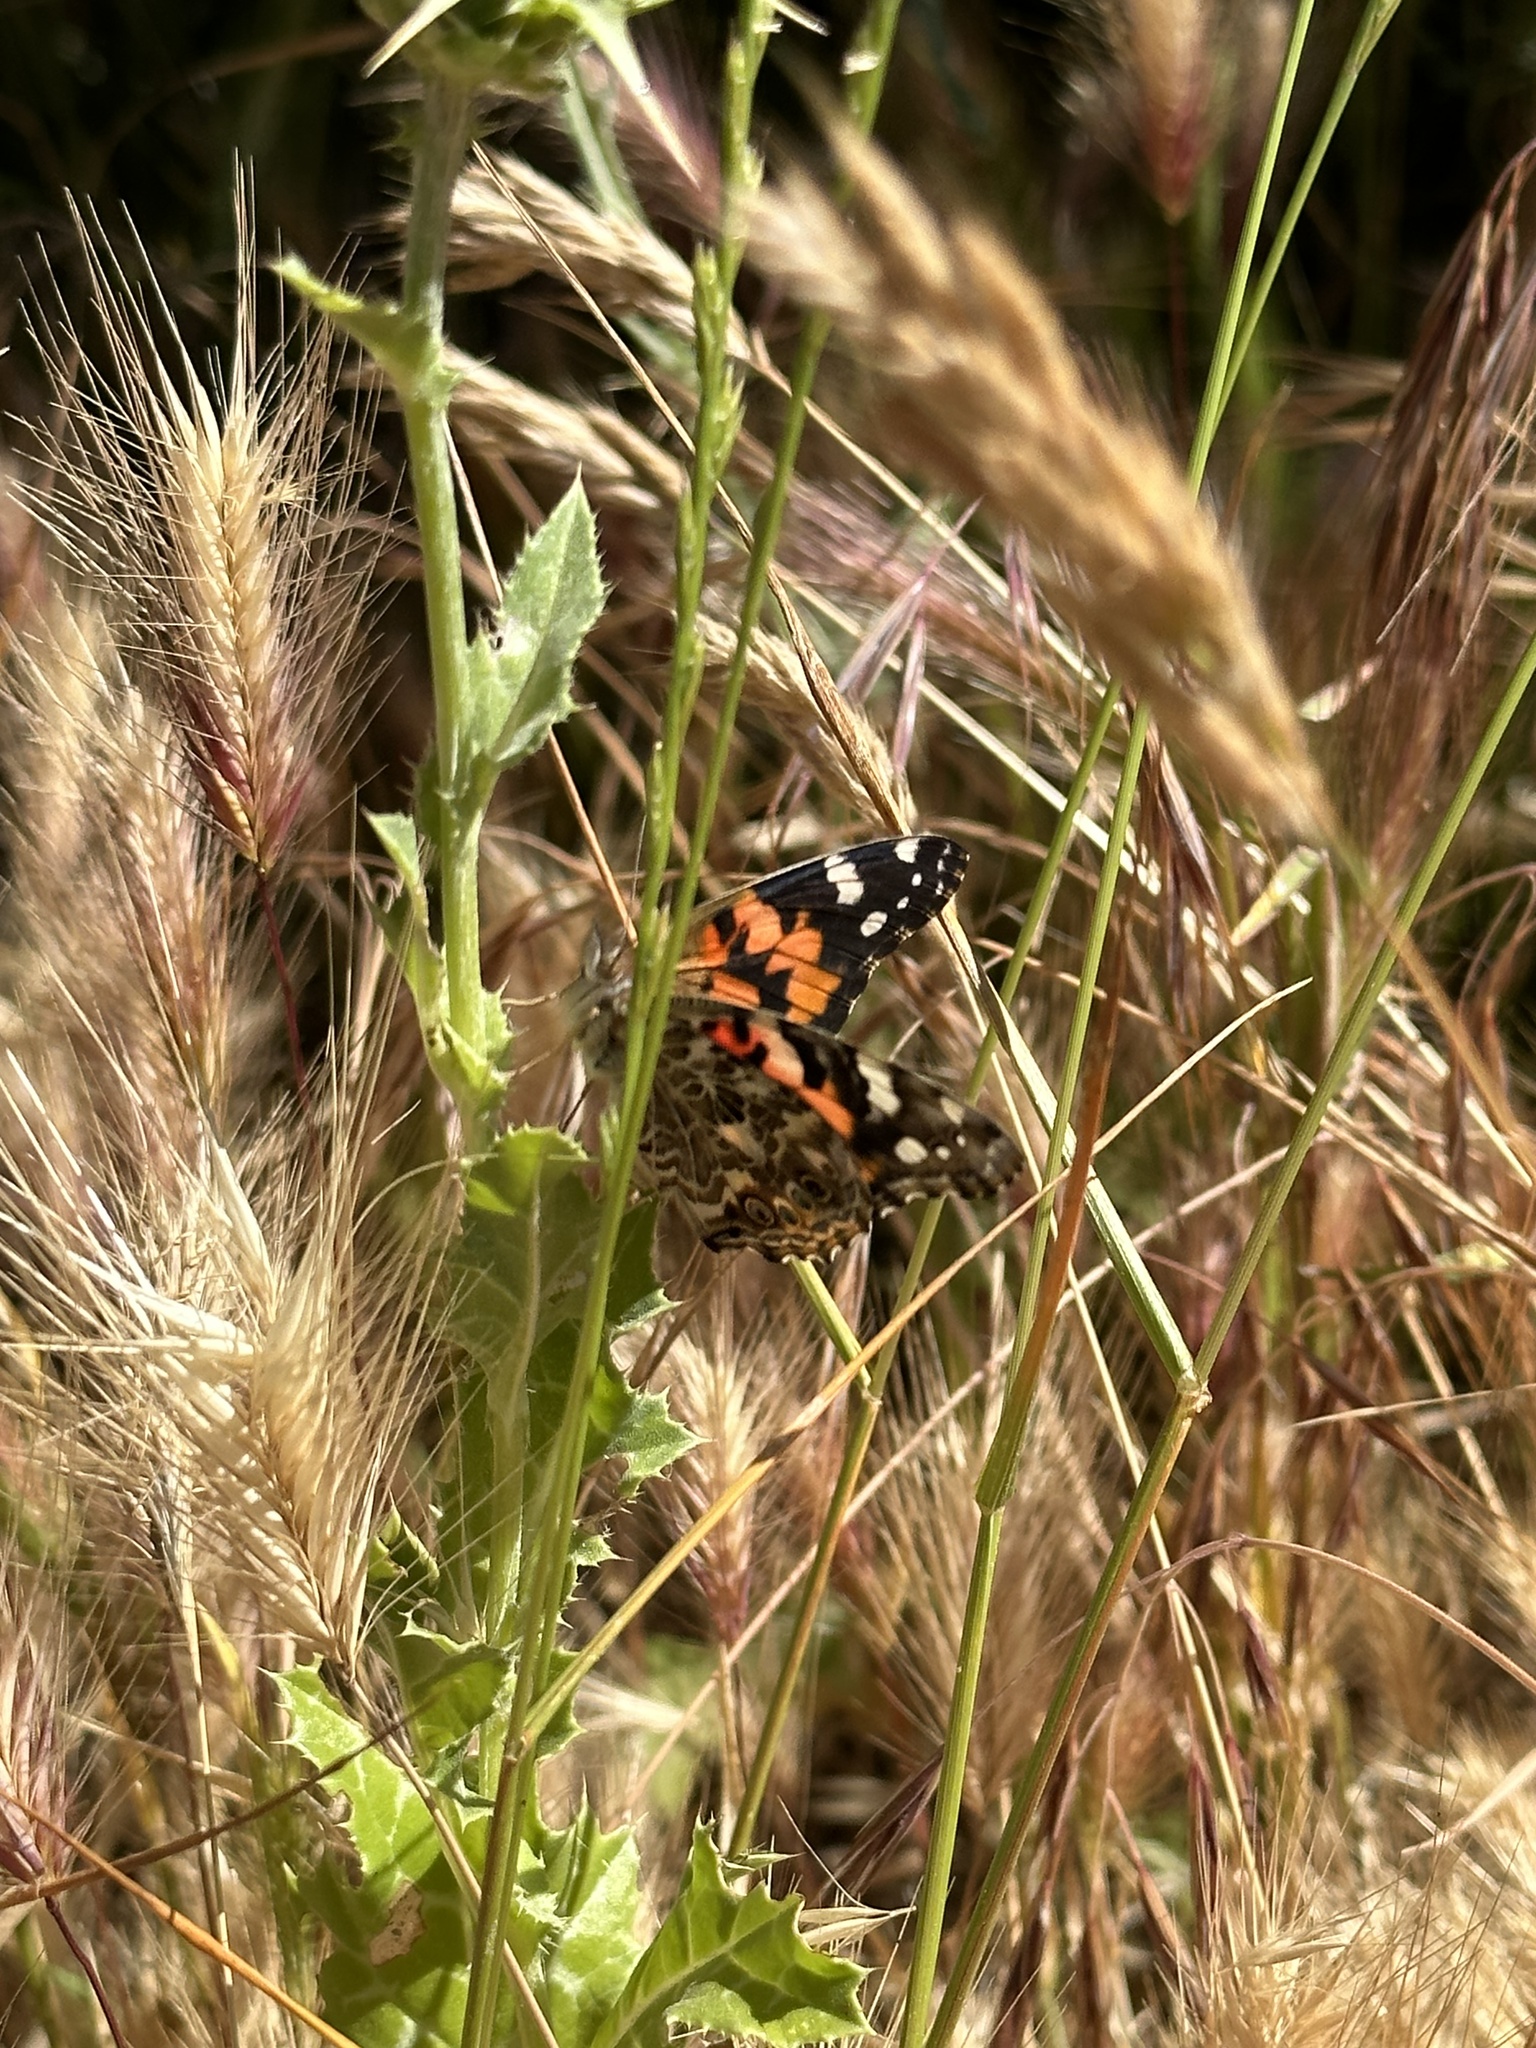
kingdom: Animalia
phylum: Arthropoda
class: Insecta
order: Lepidoptera
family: Nymphalidae
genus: Vanessa
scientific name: Vanessa cardui
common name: Painted lady
